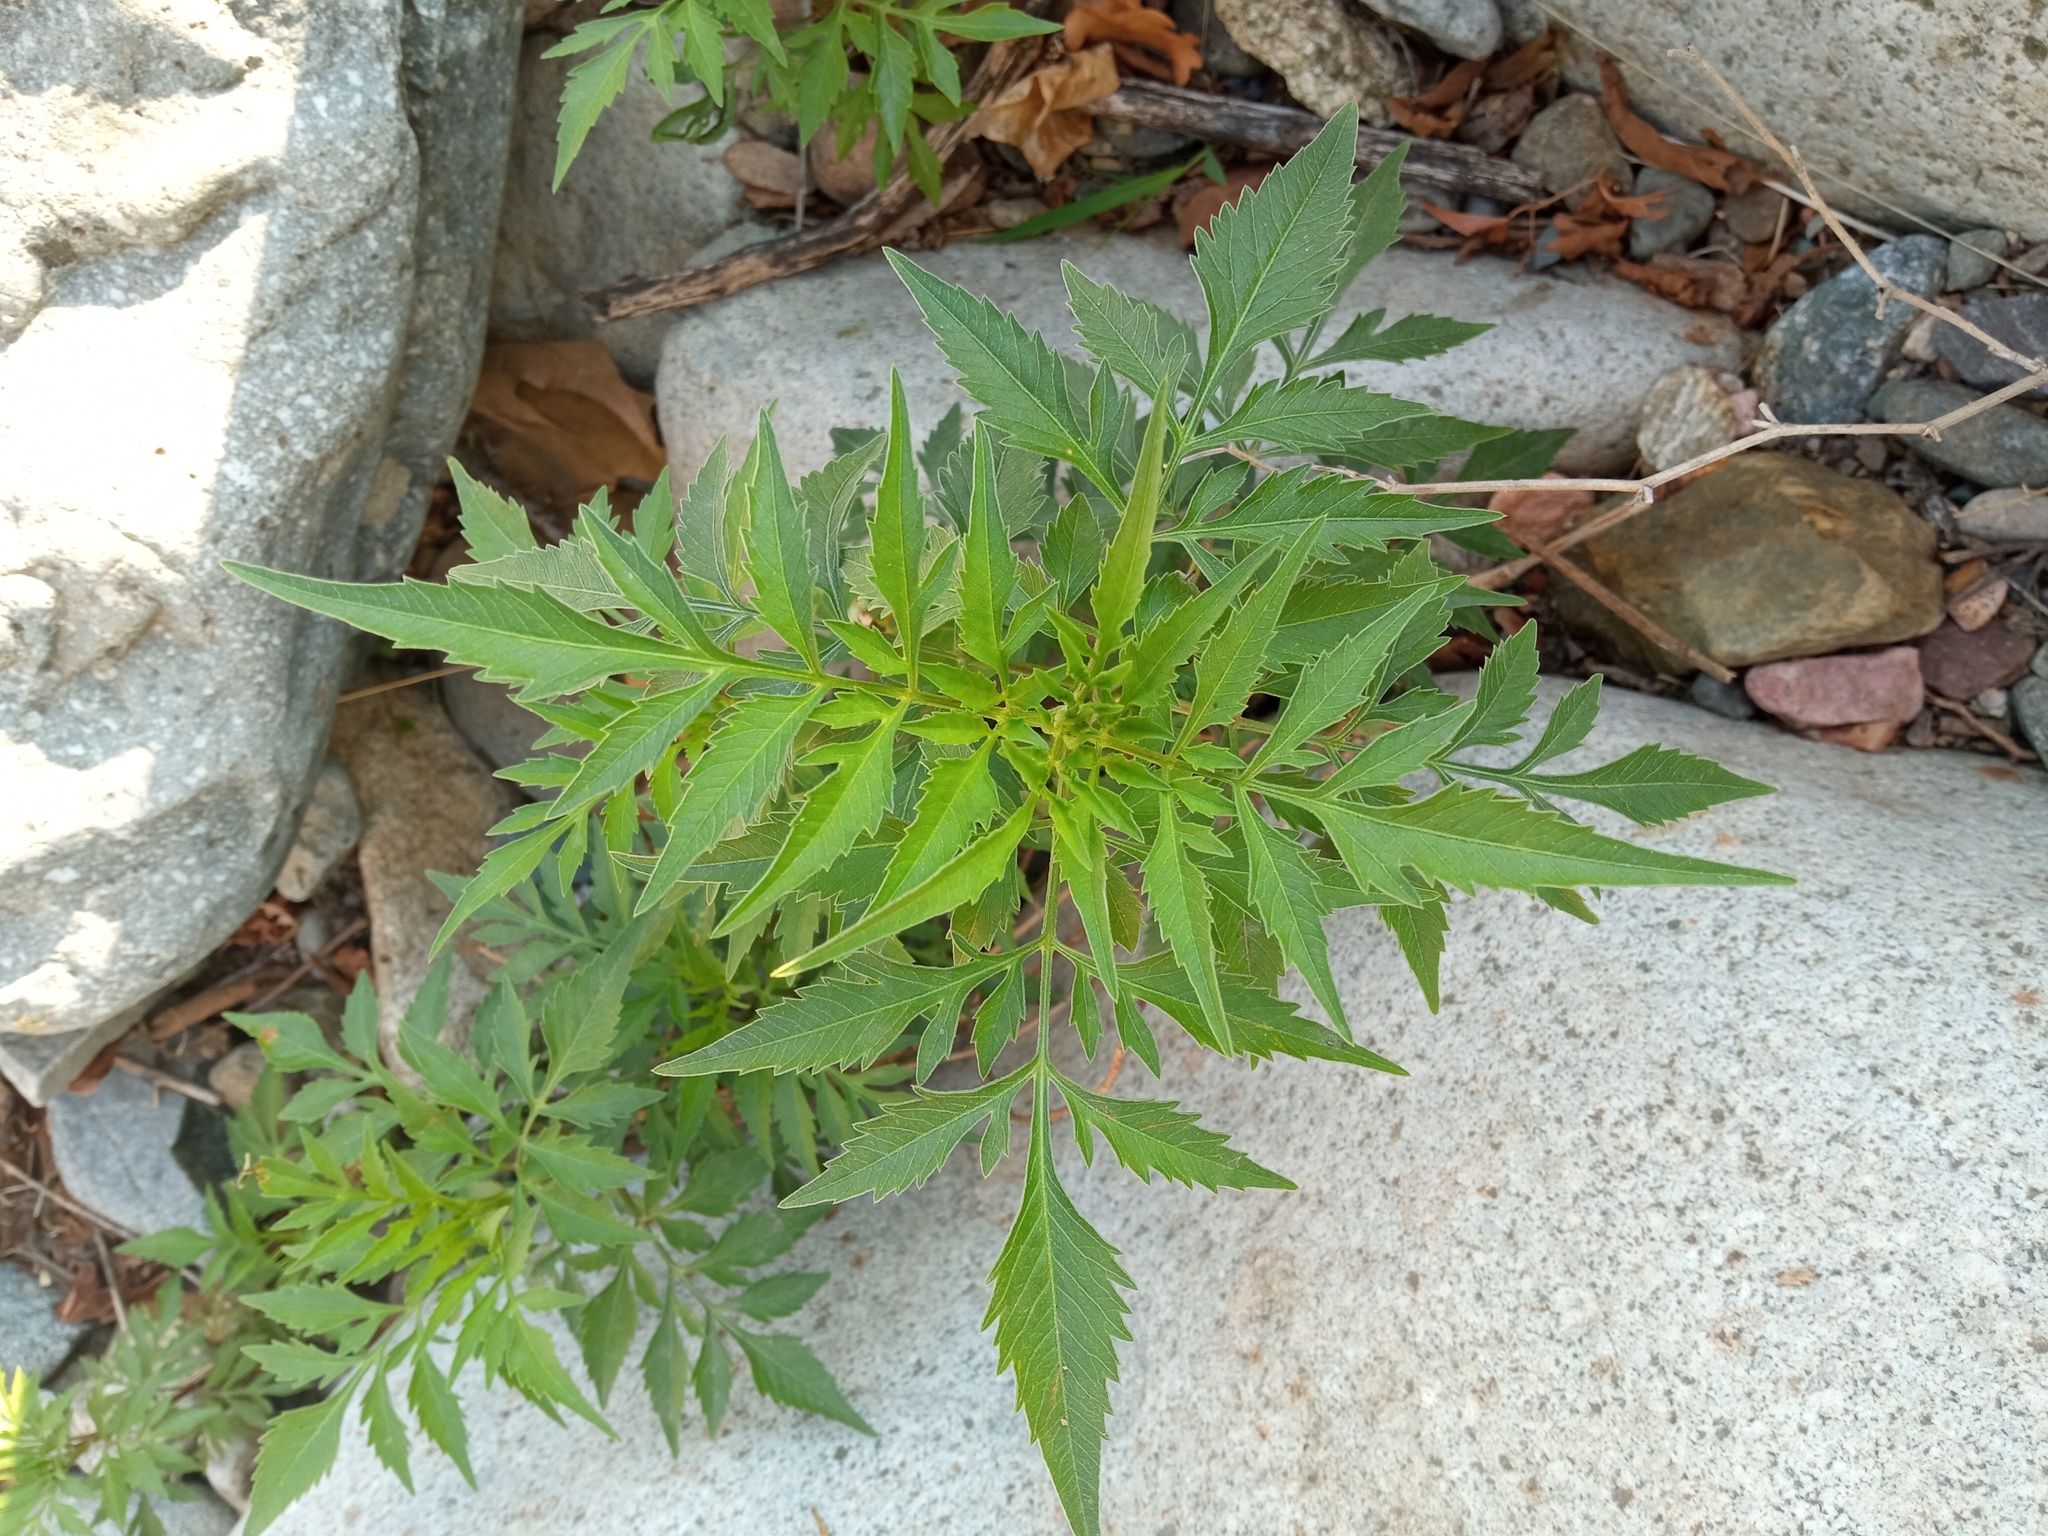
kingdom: Plantae
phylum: Tracheophyta
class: Magnoliopsida
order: Asterales
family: Asteraceae
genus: Bidens
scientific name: Bidens subalternans
